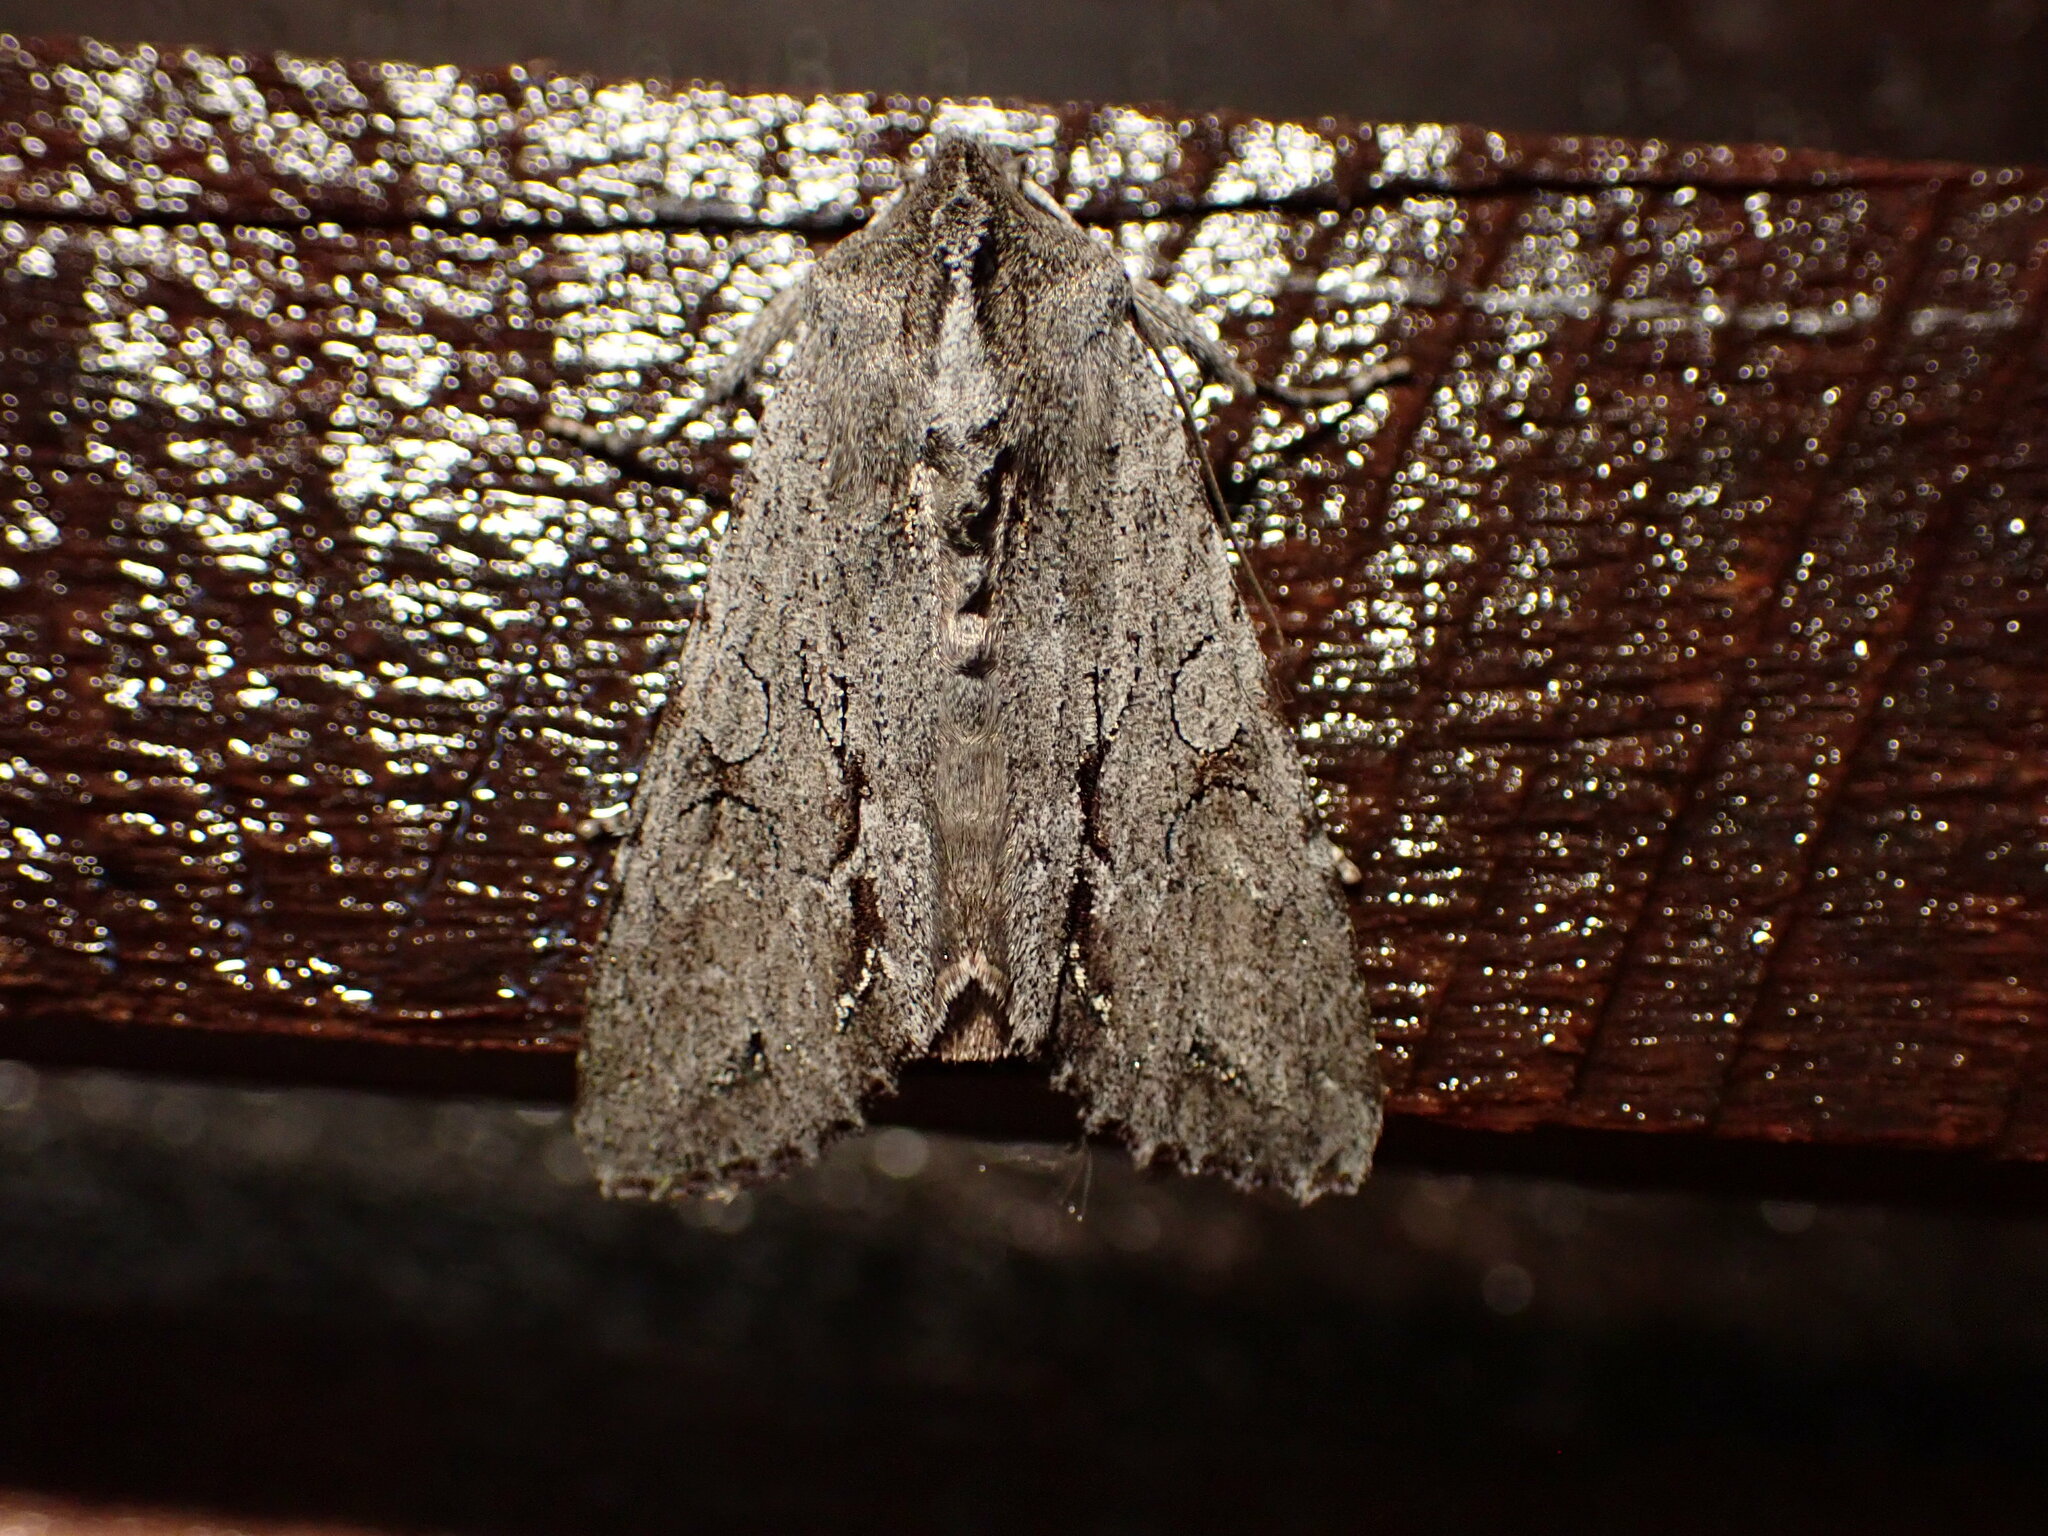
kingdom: Animalia
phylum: Arthropoda
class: Insecta
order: Lepidoptera
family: Noctuidae
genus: Ichneutica
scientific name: Ichneutica
